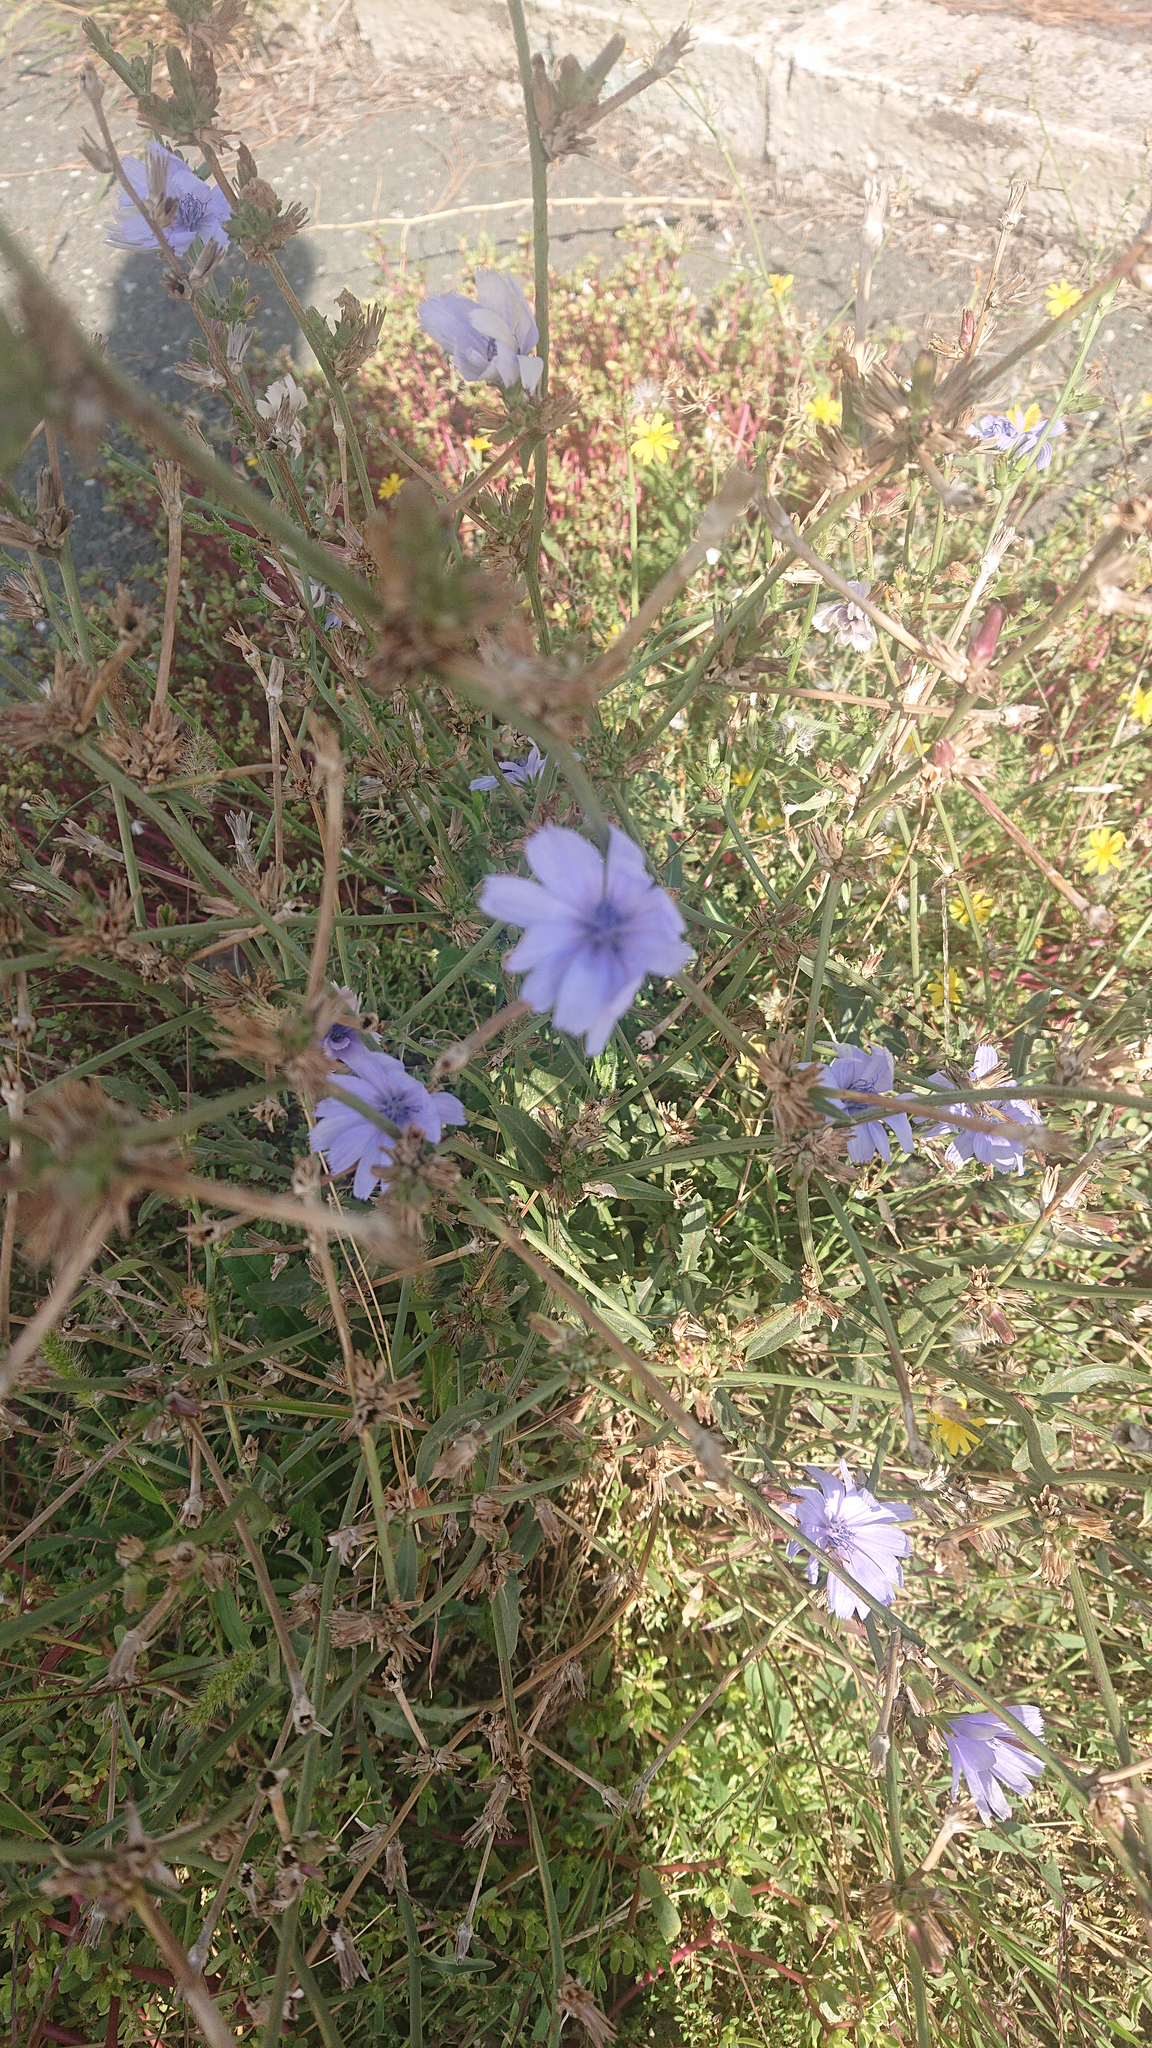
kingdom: Plantae
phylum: Tracheophyta
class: Magnoliopsida
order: Asterales
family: Asteraceae
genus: Cichorium
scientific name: Cichorium intybus
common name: Chicory
